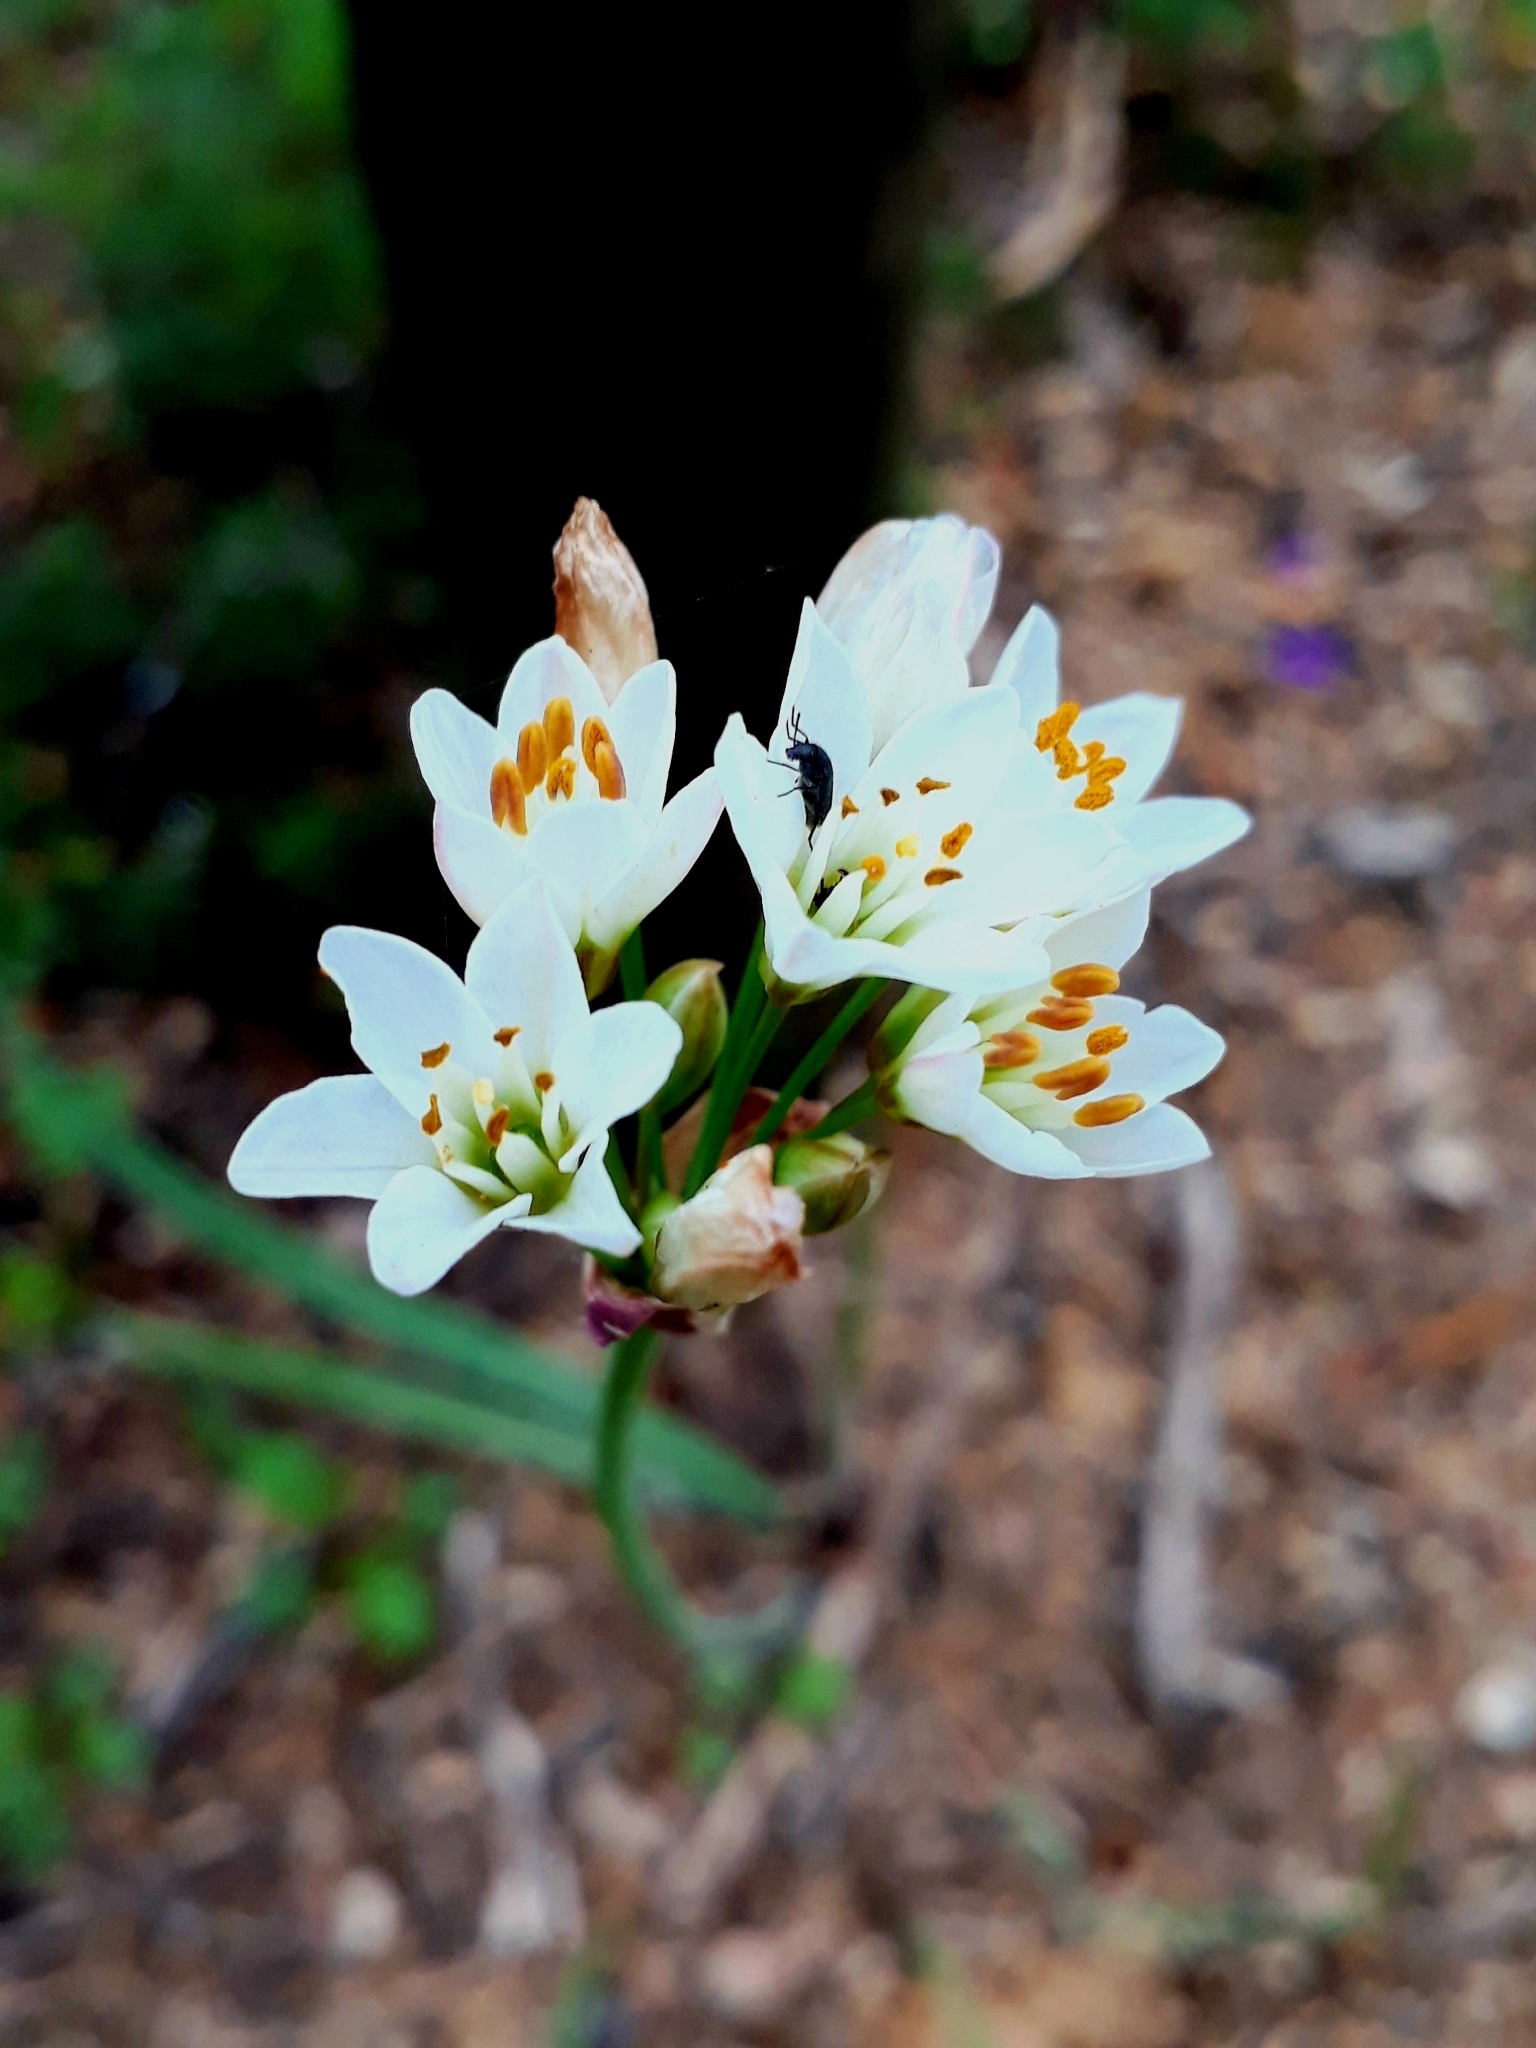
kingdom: Plantae
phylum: Tracheophyta
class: Liliopsida
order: Asparagales
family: Amaryllidaceae
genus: Nothoscordum
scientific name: Nothoscordum gracile
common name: Slender false garlic
